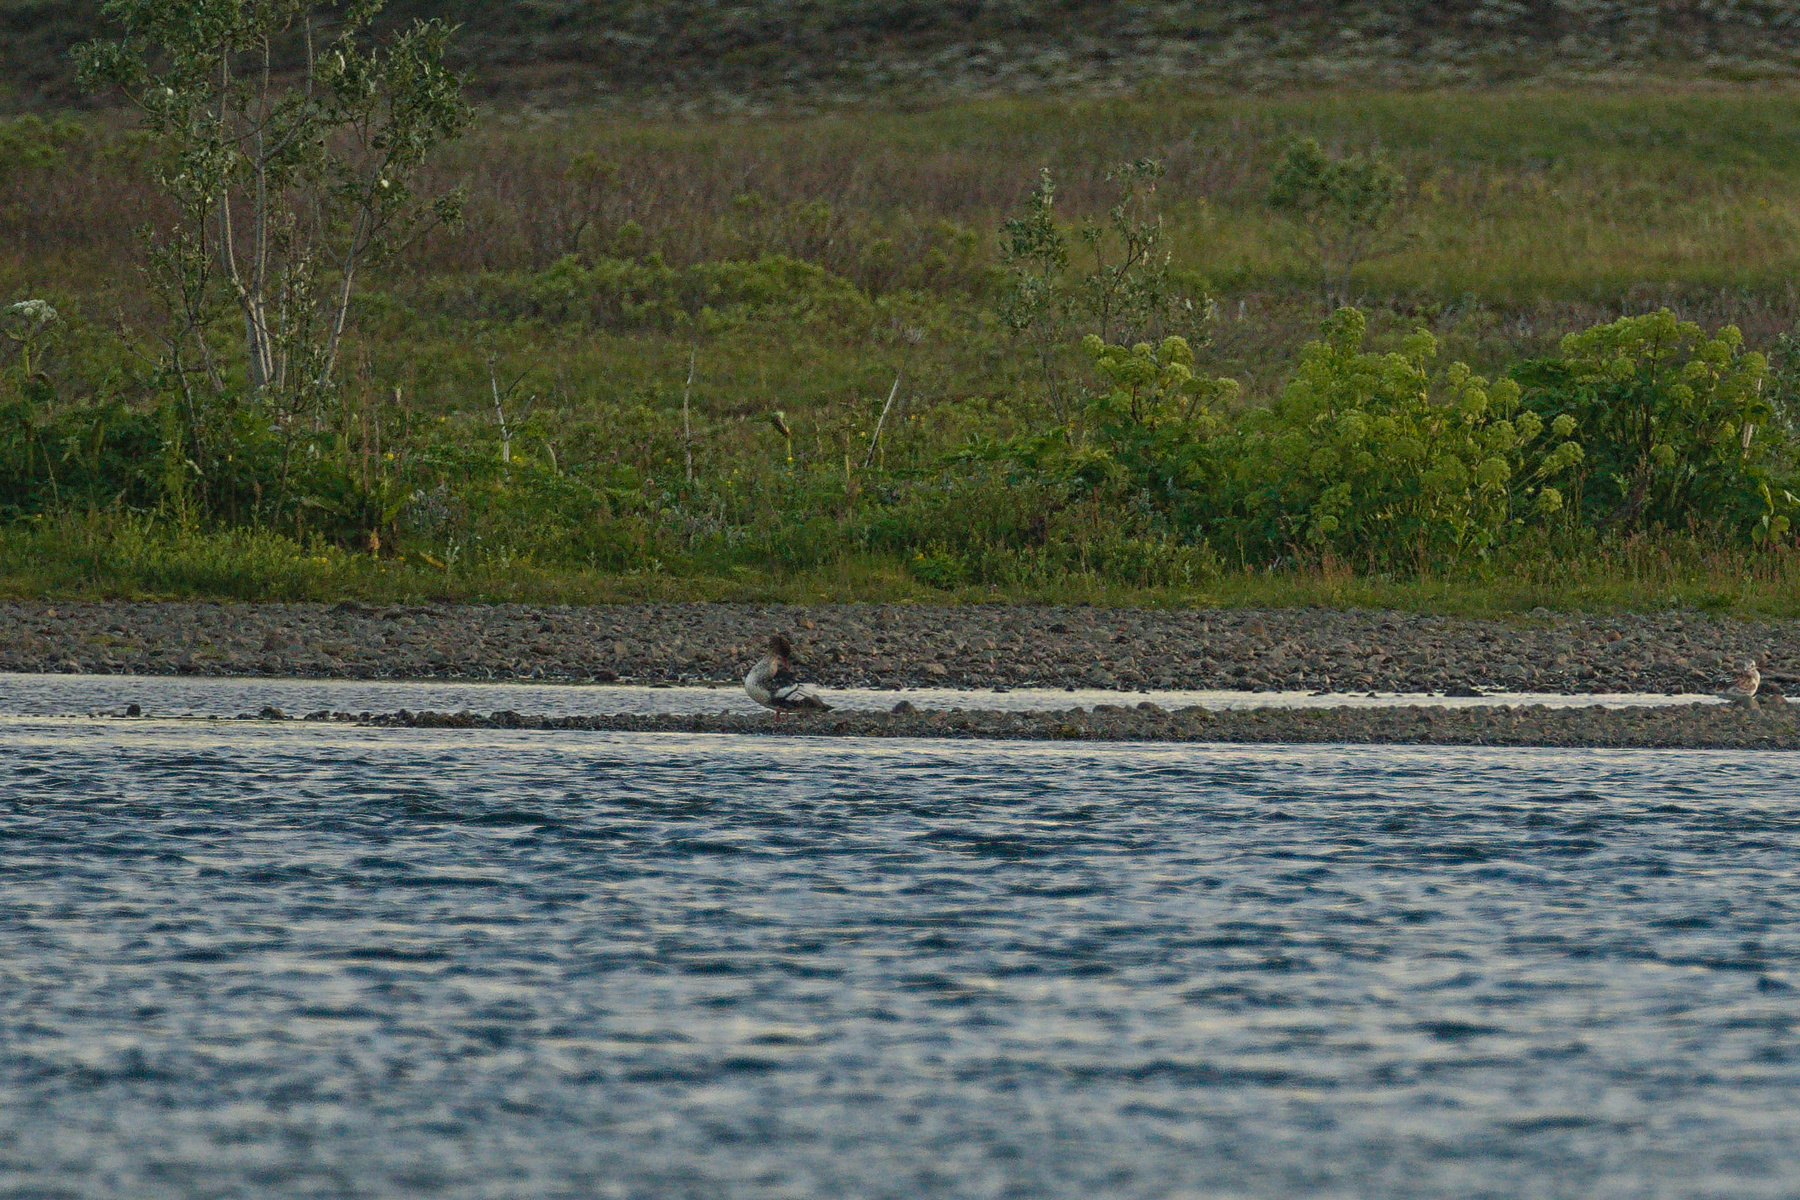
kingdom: Animalia
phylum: Chordata
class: Aves
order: Anseriformes
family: Anatidae
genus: Mergus
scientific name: Mergus serrator
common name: Red-breasted merganser
